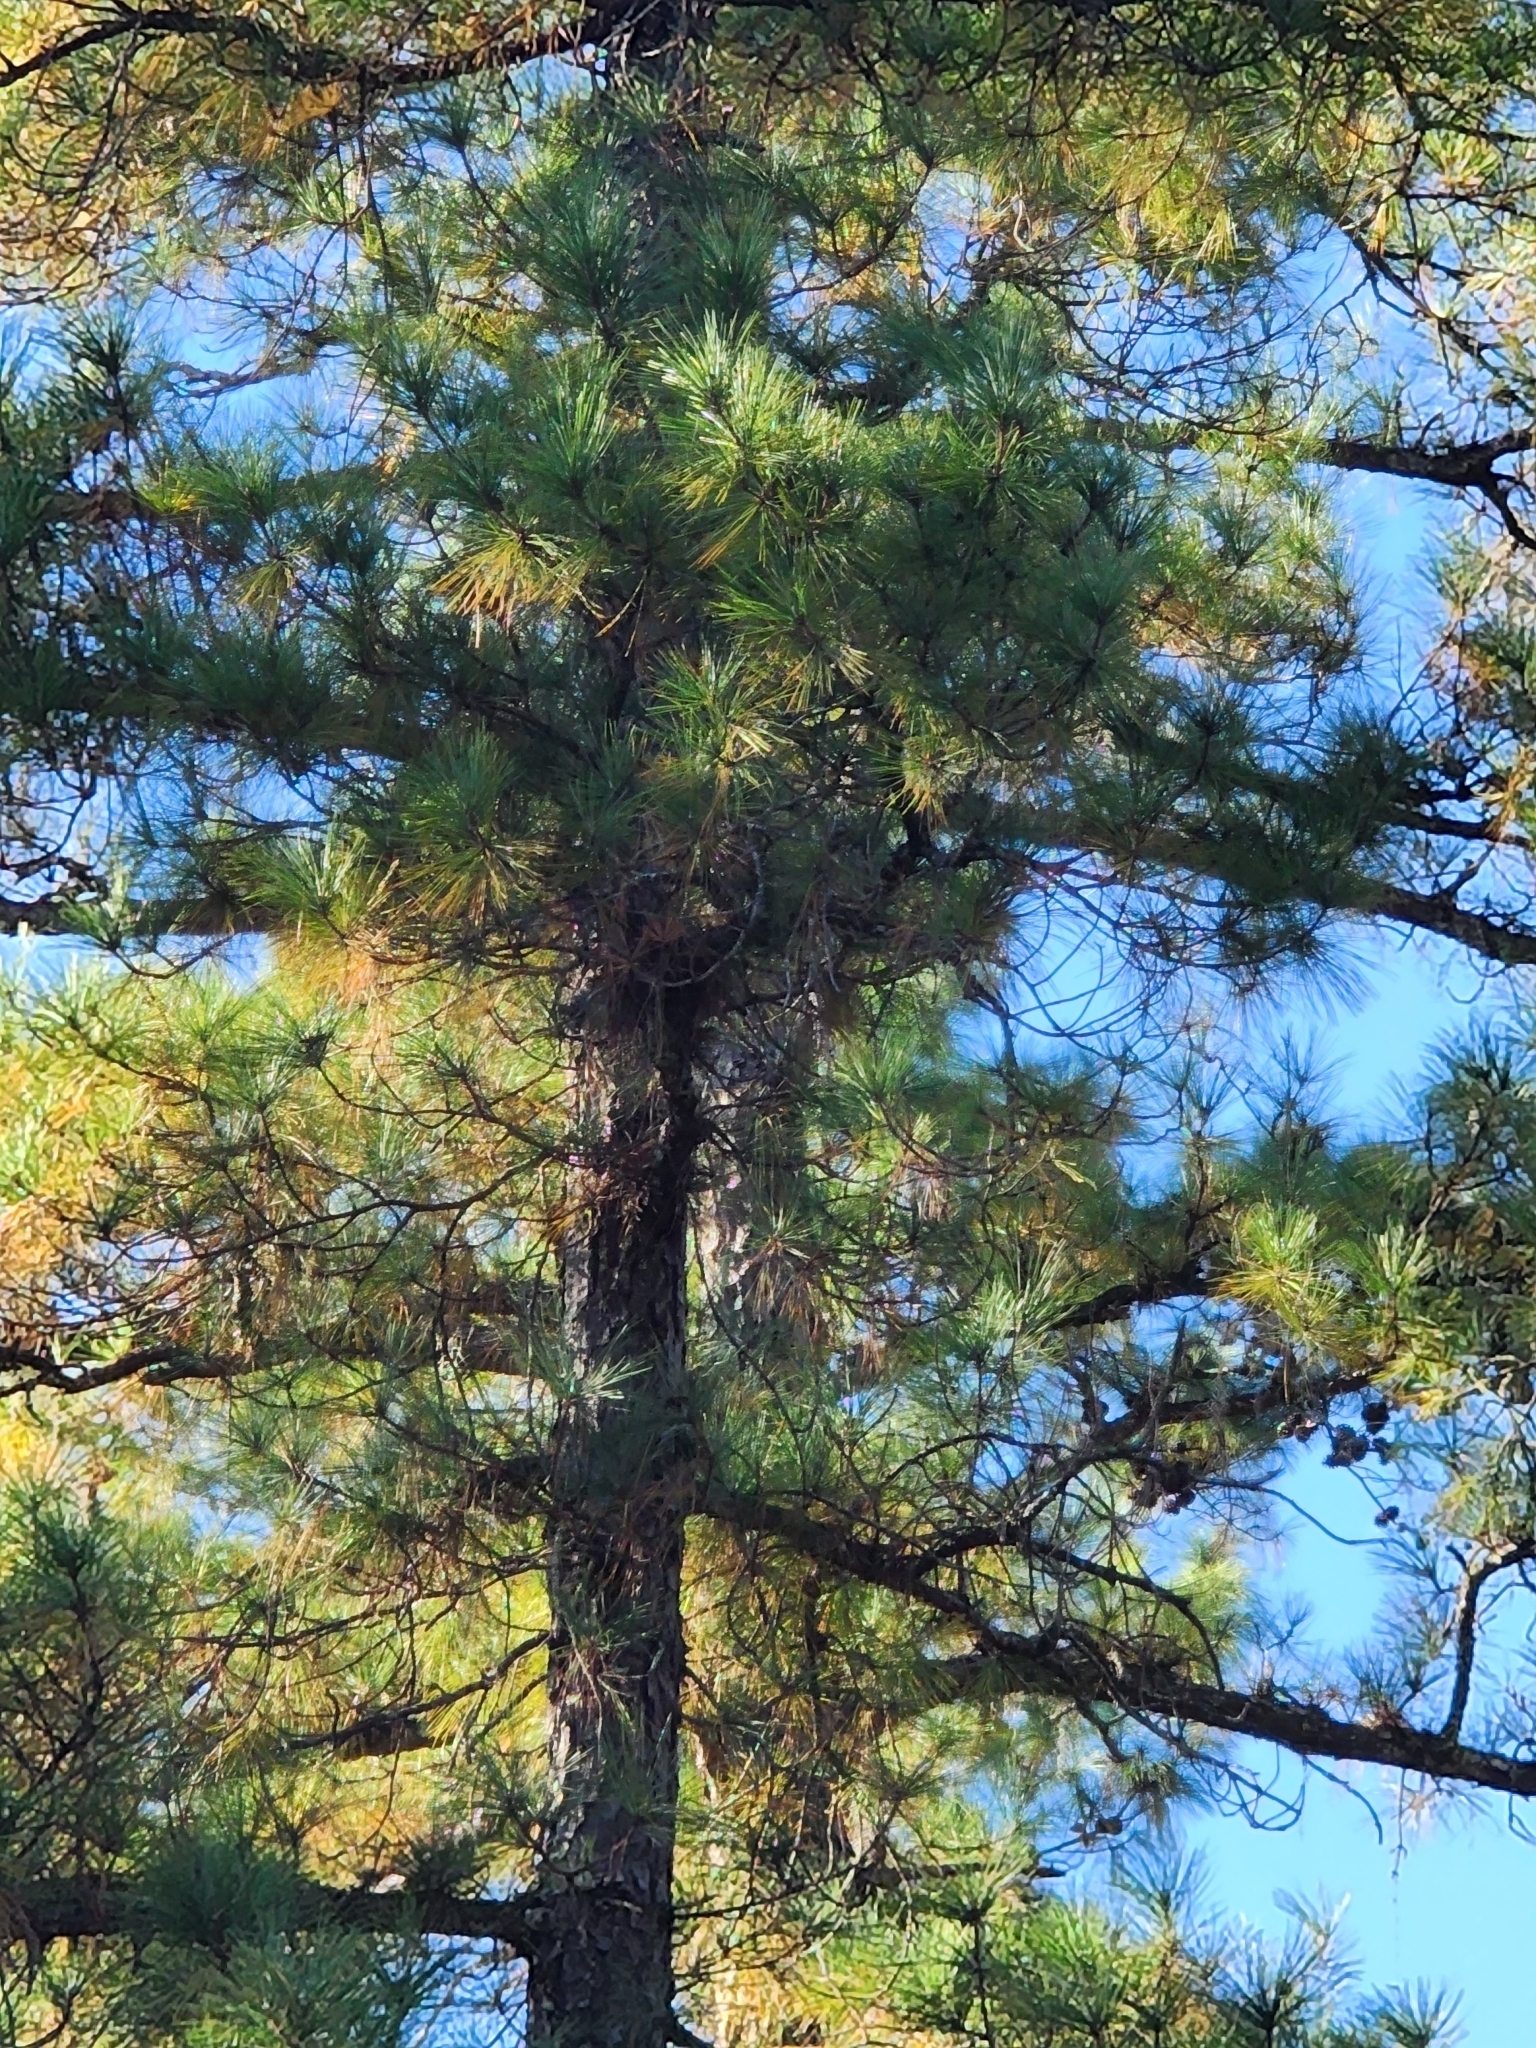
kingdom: Plantae
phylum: Tracheophyta
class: Pinopsida
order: Pinales
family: Pinaceae
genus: Pinus
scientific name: Pinus serotina
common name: Marsh pine
